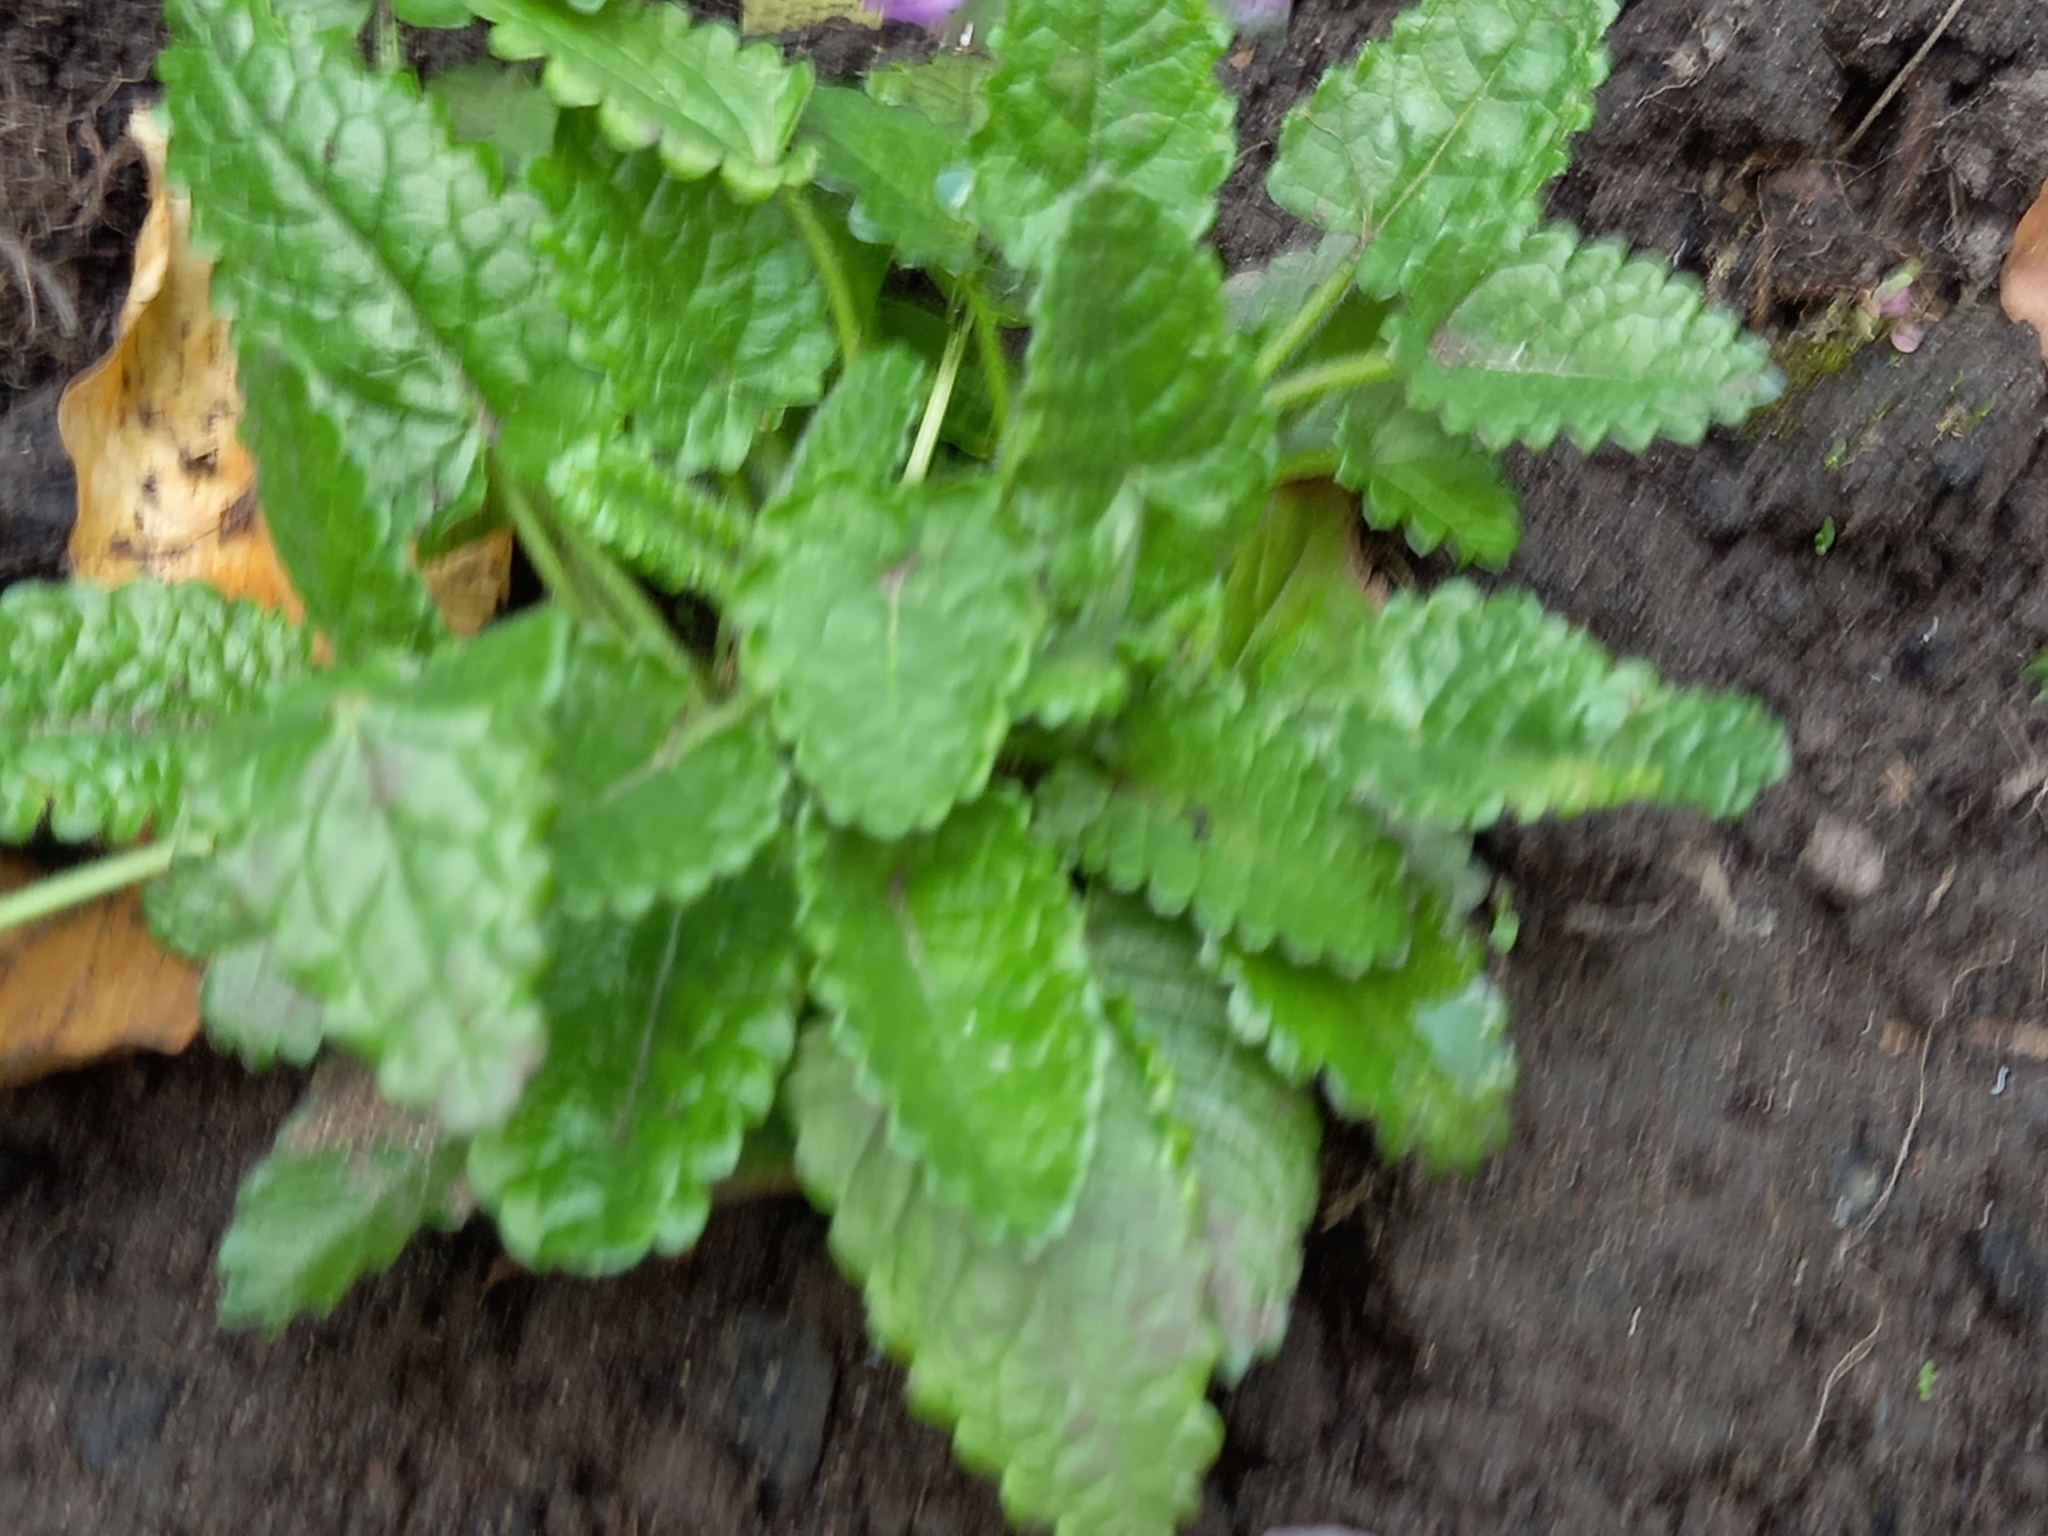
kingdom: Plantae
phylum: Tracheophyta
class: Magnoliopsida
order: Lamiales
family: Lamiaceae
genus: Betonica
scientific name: Betonica officinalis
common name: Bishop's-wort
